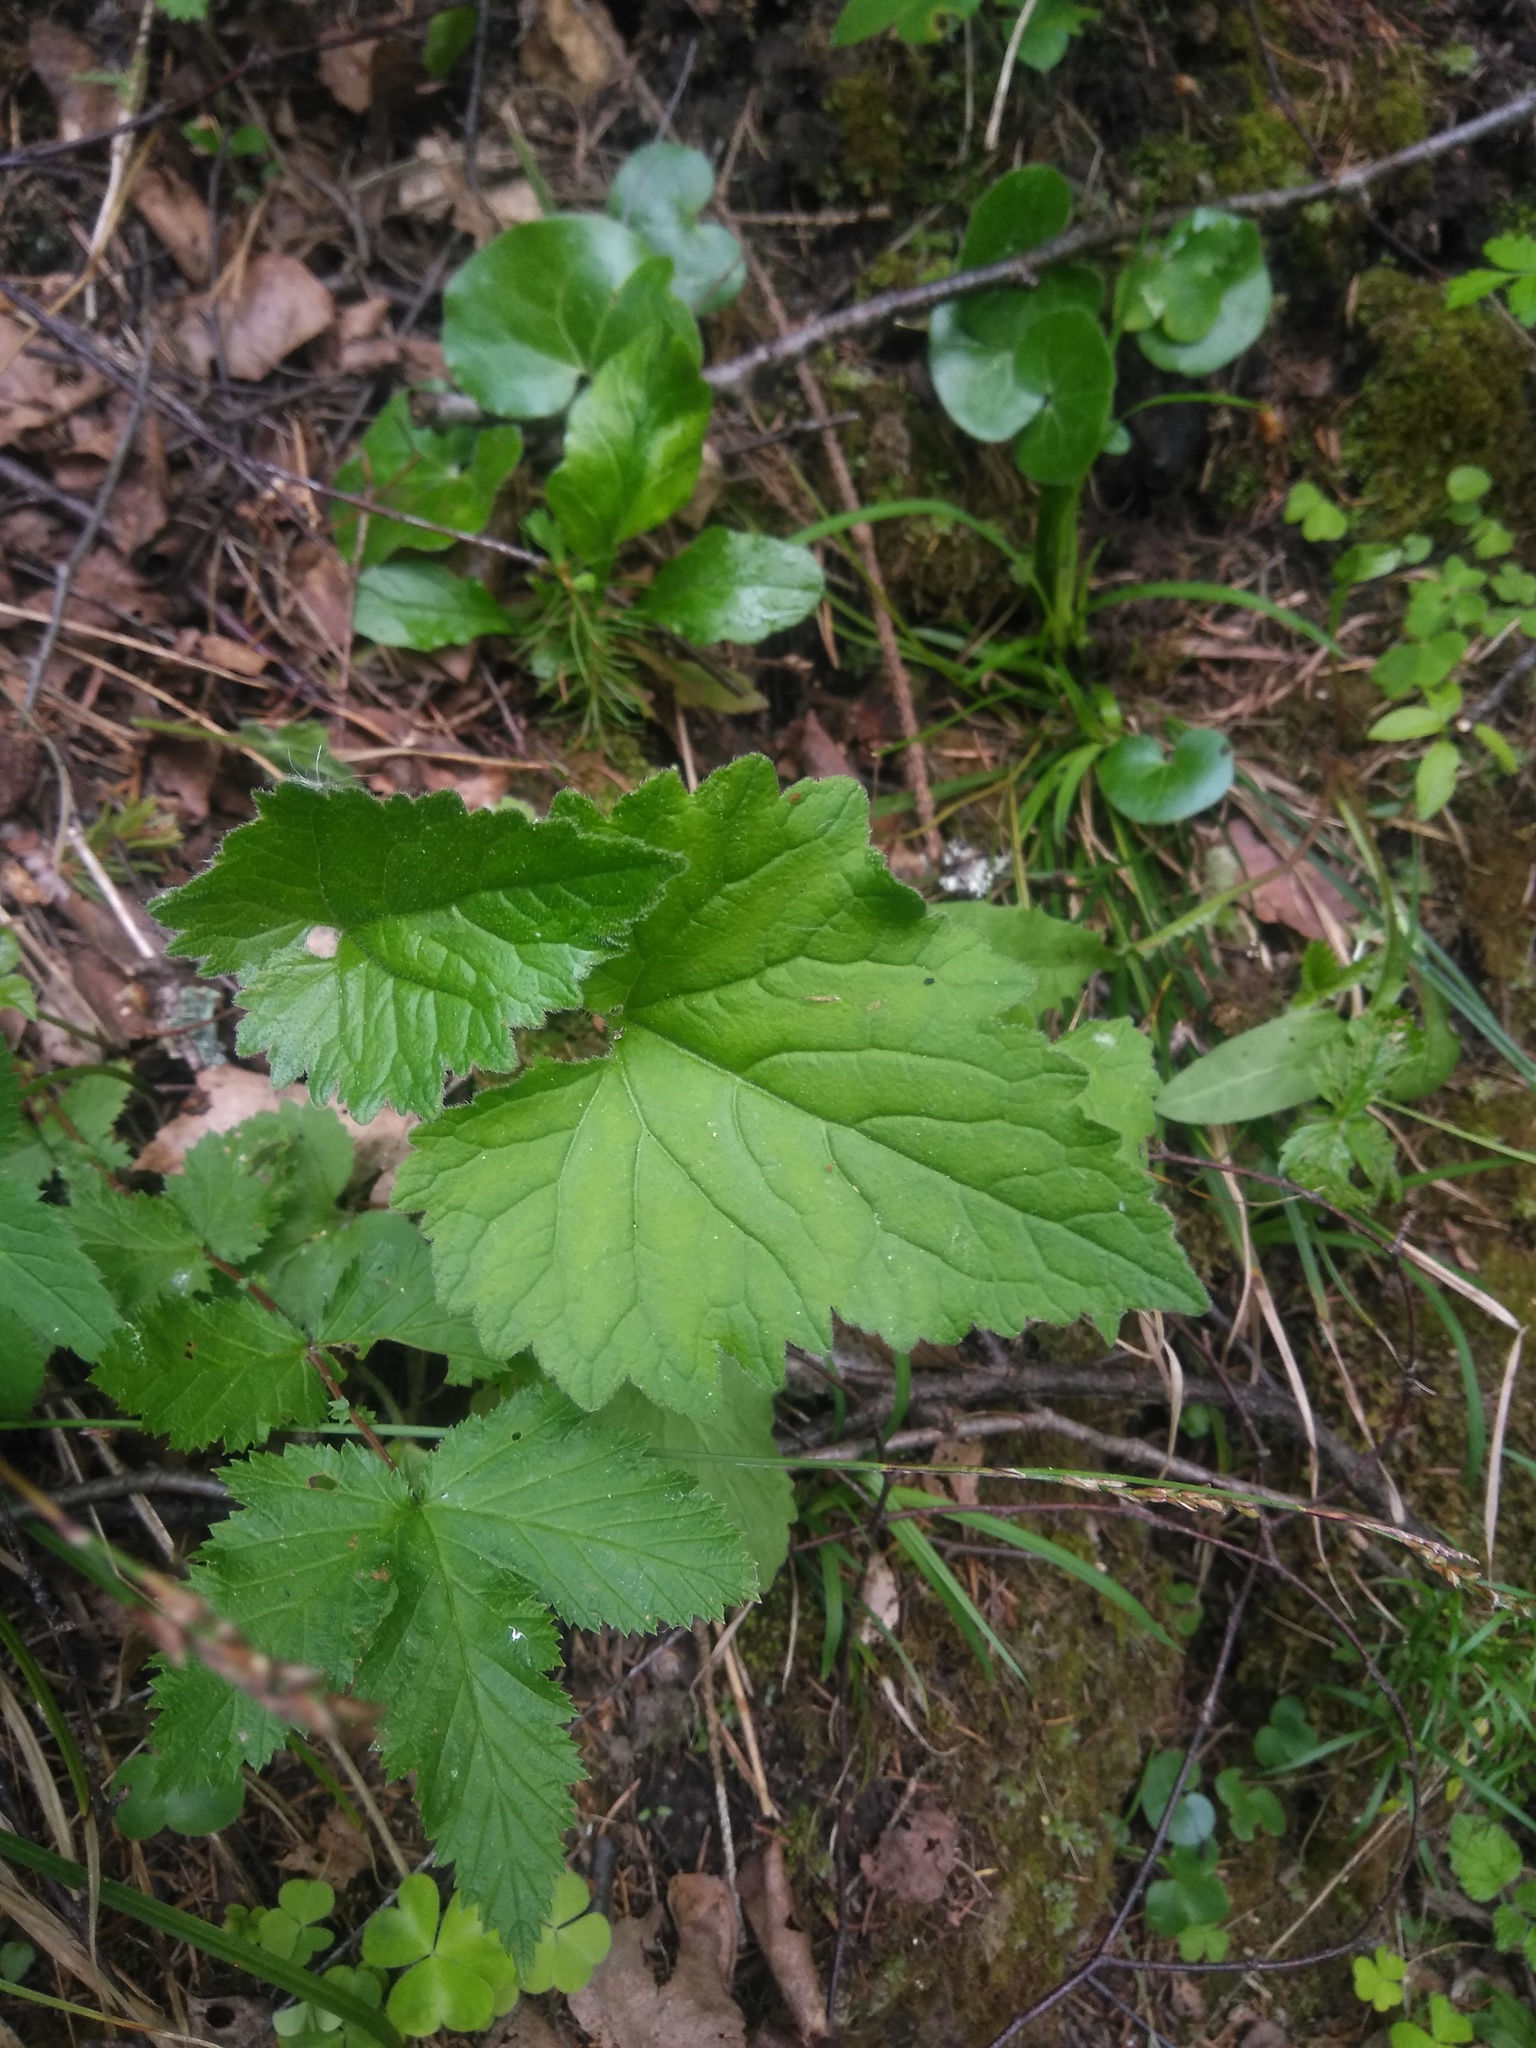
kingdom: Plantae
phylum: Tracheophyta
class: Magnoliopsida
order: Asterales
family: Campanulaceae
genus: Campanula
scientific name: Campanula trachelium
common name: Nettle-leaved bellflower
